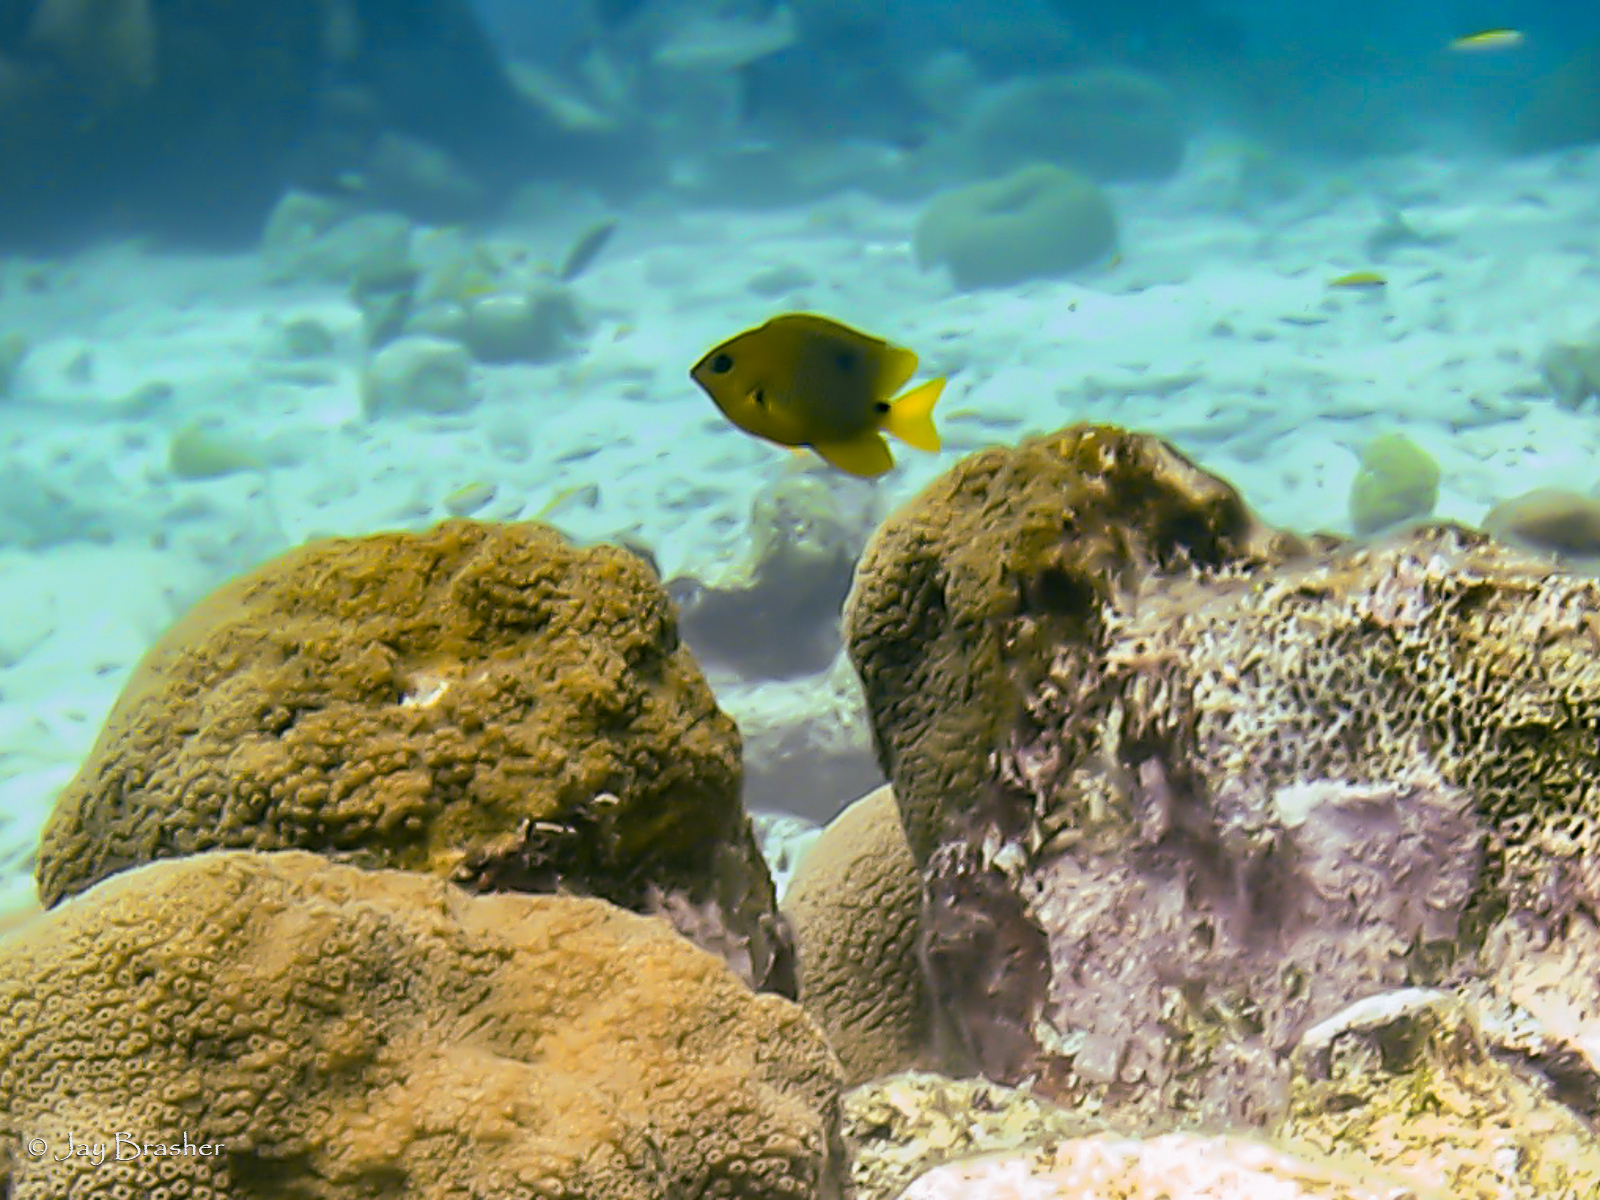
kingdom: Animalia
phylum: Chordata
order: Perciformes
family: Pomacentridae
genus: Stegastes
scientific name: Stegastes planifrons
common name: Threespot damselfish
